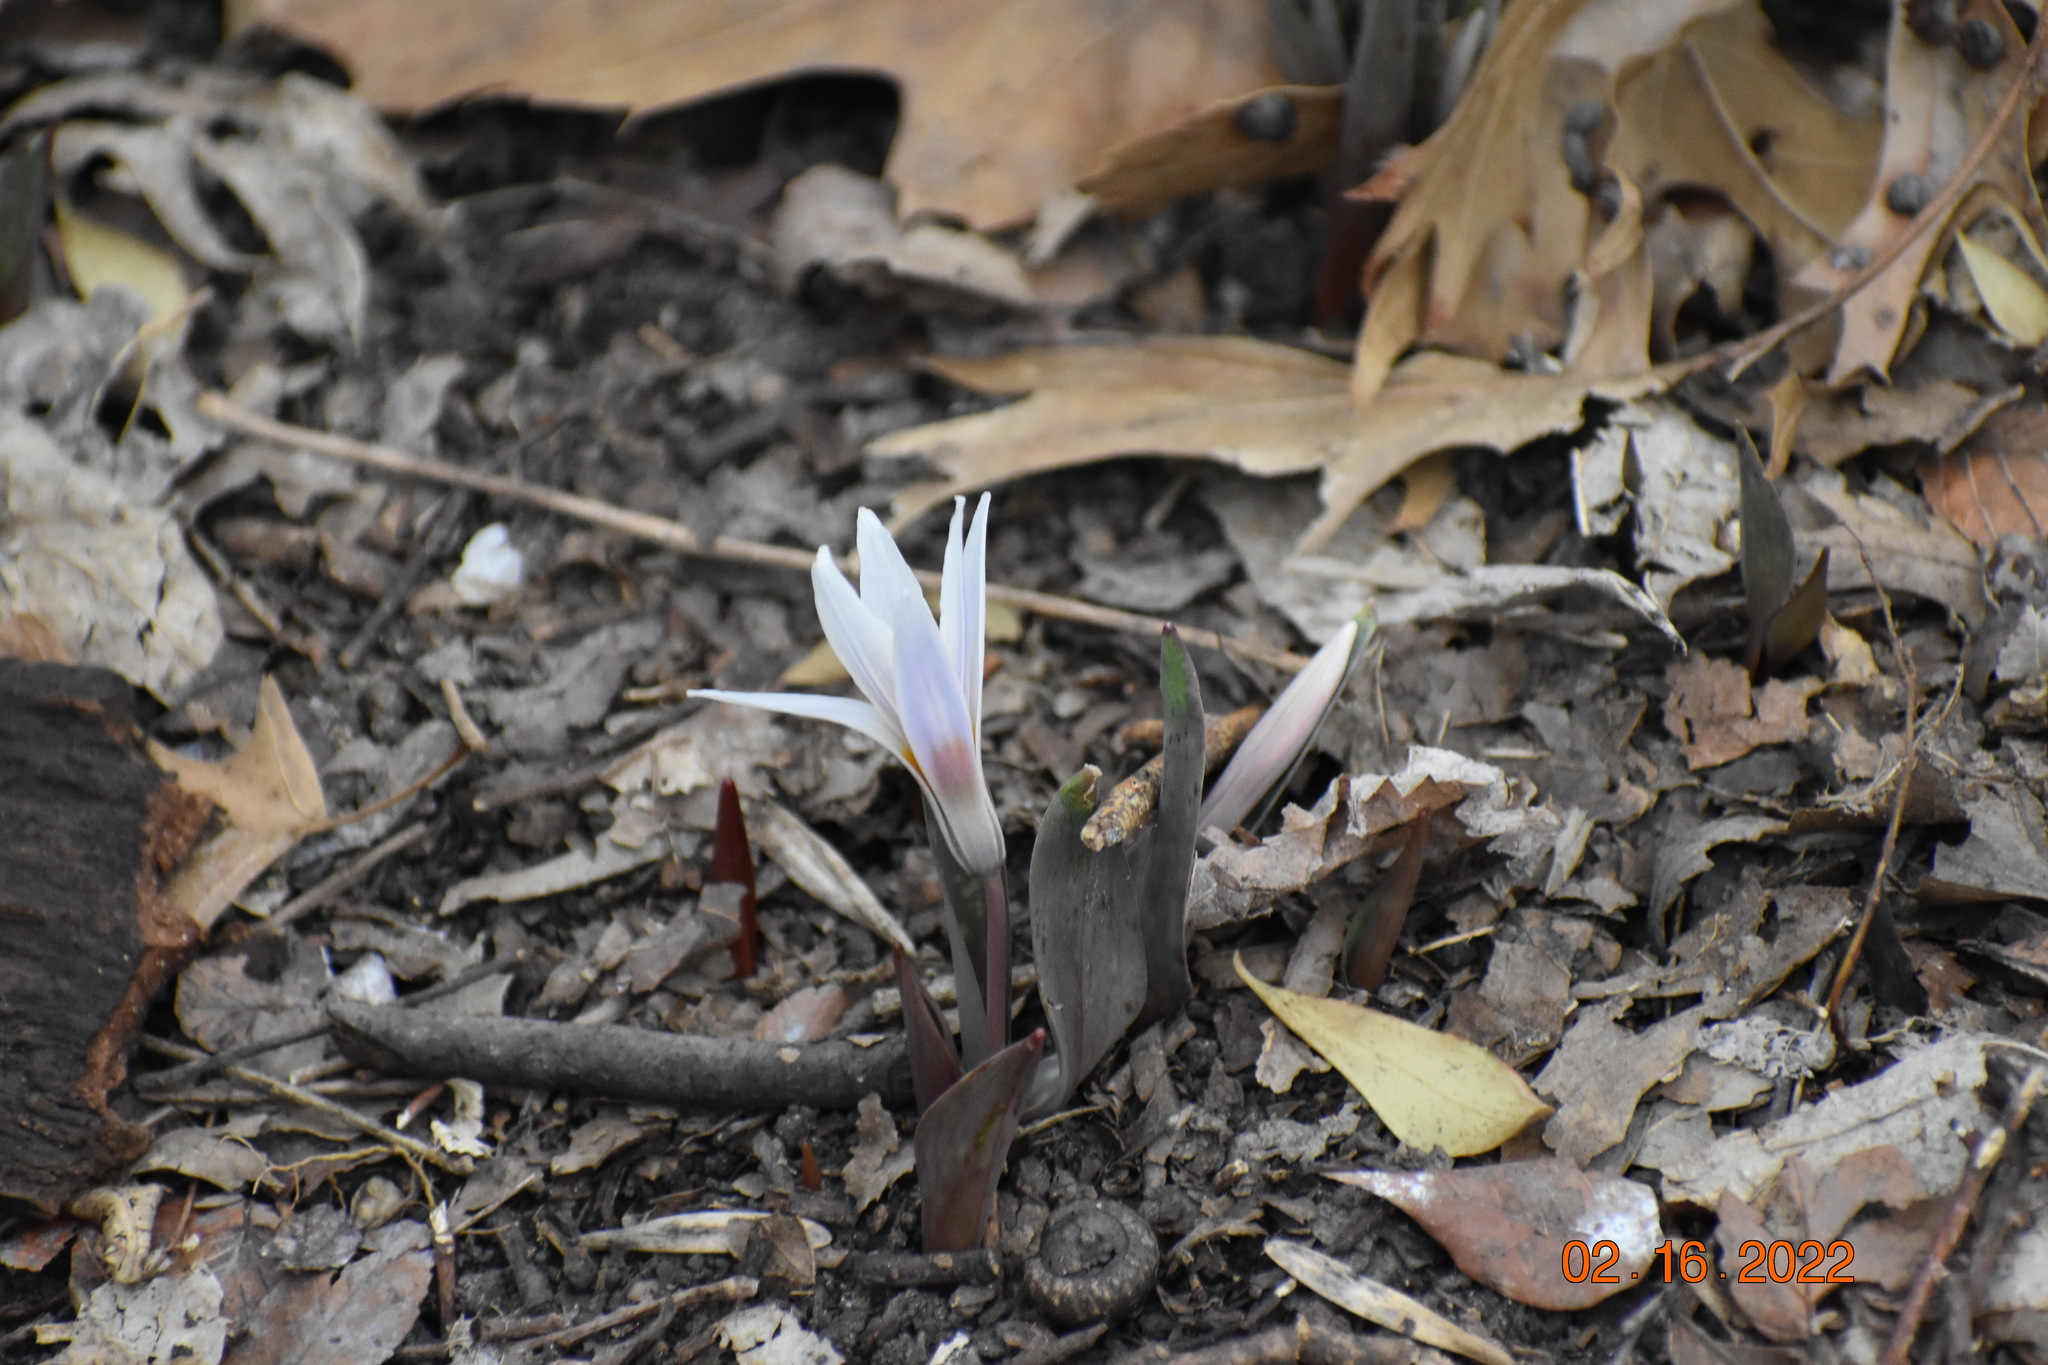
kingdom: Plantae
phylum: Tracheophyta
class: Liliopsida
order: Liliales
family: Liliaceae
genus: Erythronium
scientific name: Erythronium albidum
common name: White trout-lily
